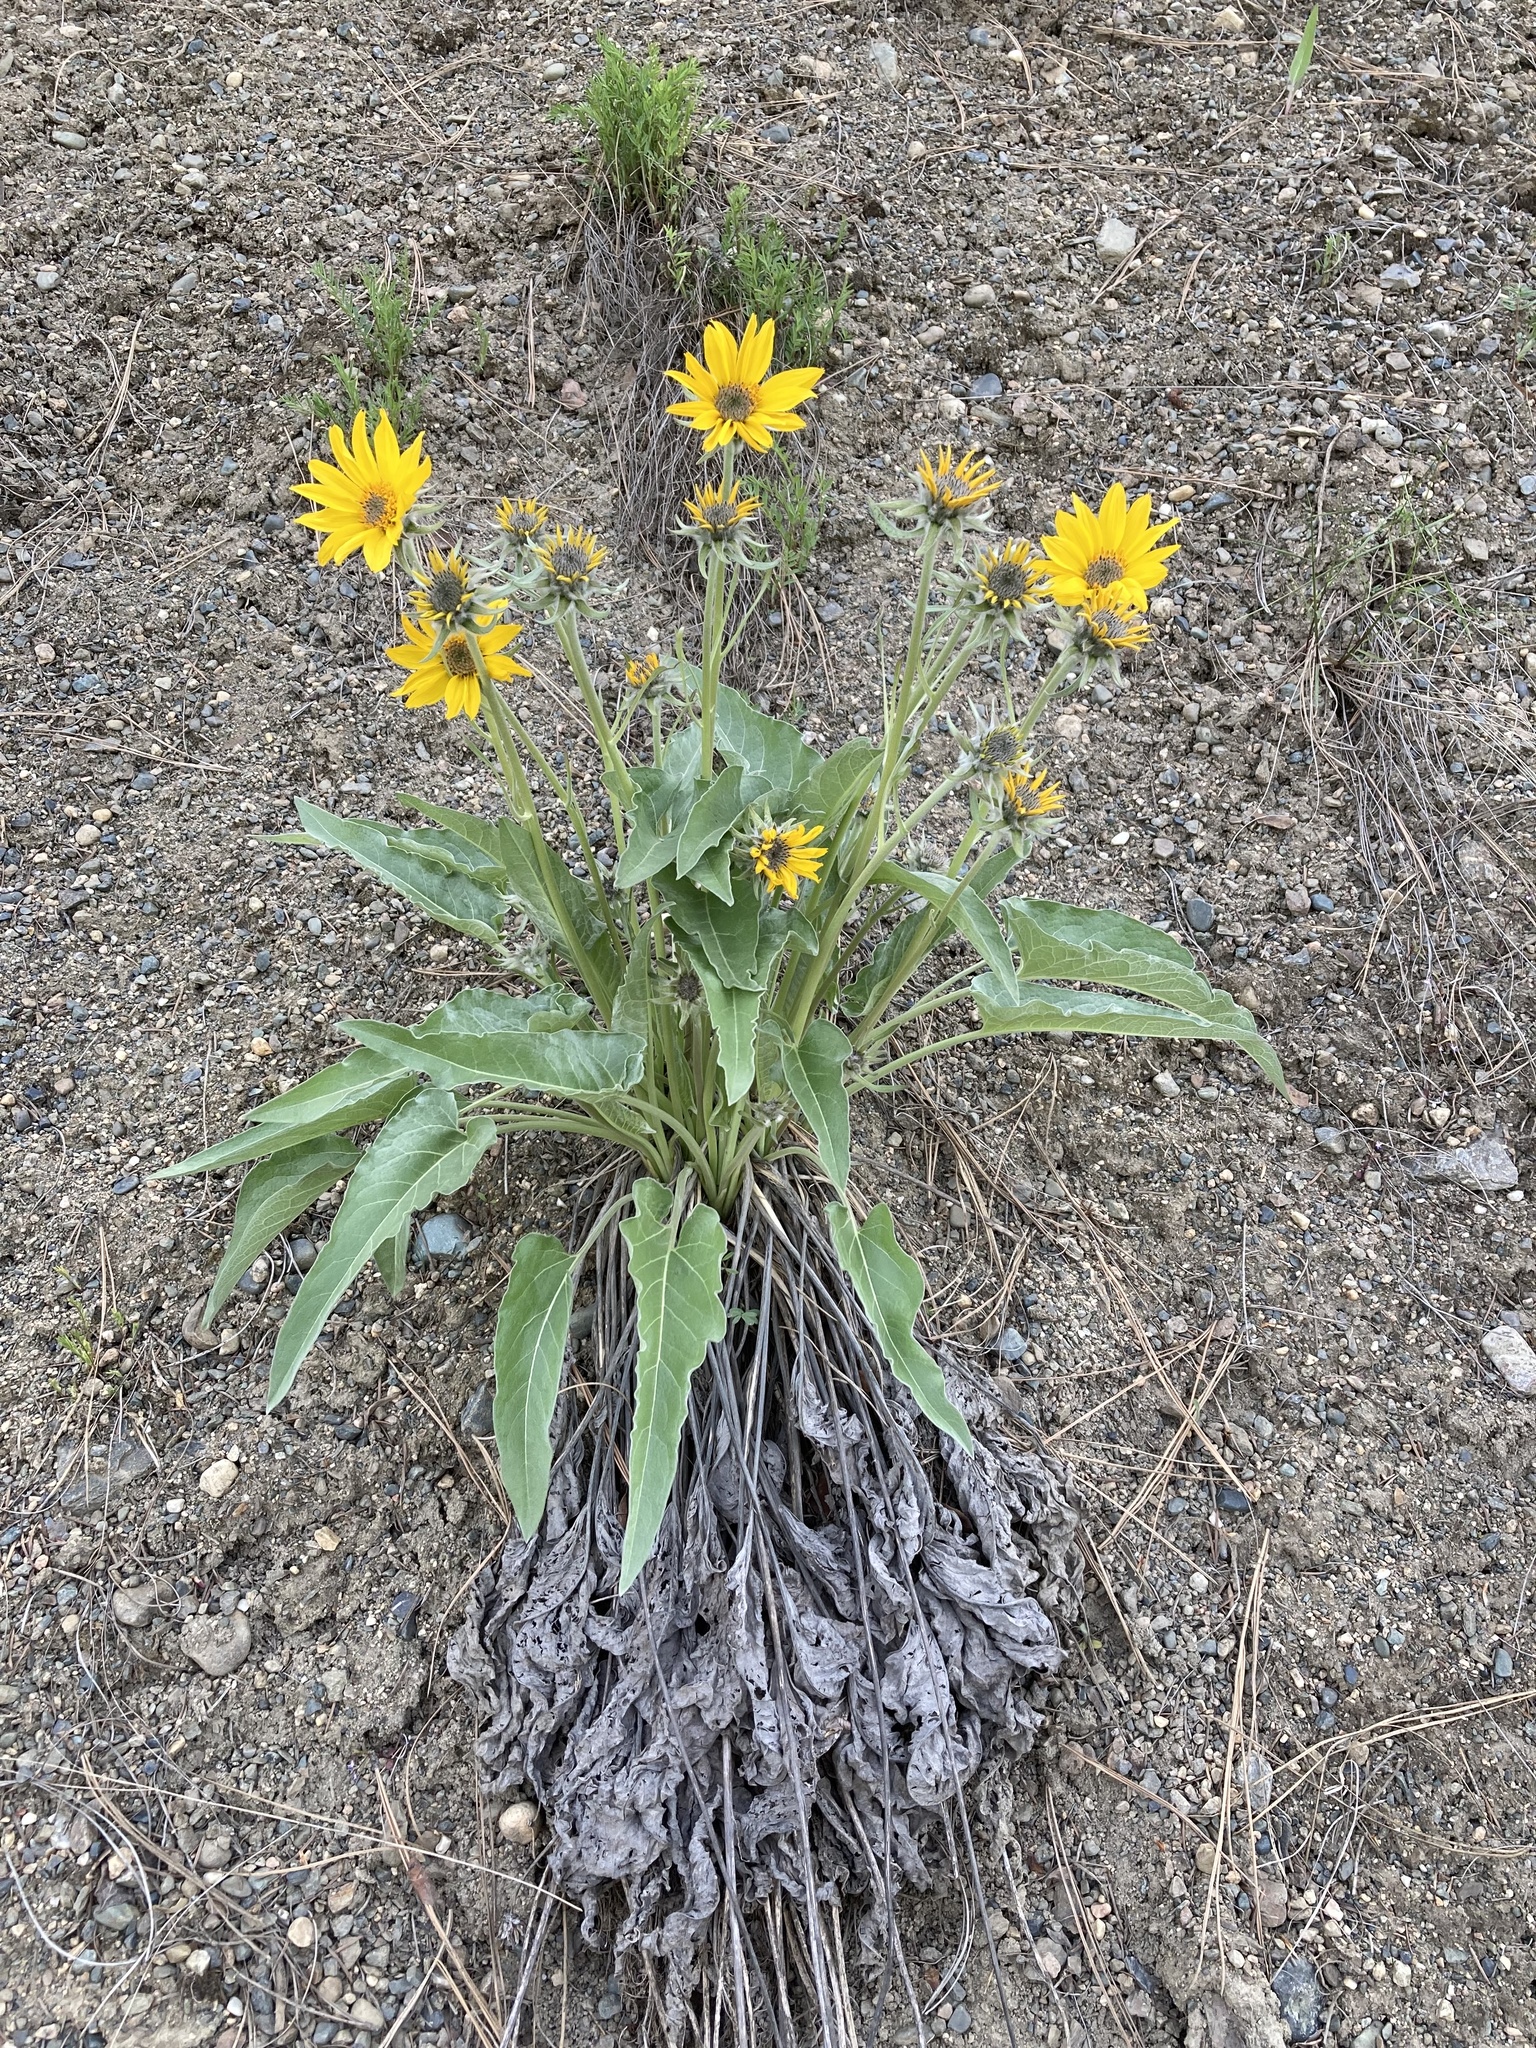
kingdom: Plantae
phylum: Tracheophyta
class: Magnoliopsida
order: Asterales
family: Asteraceae
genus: Wyethia
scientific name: Wyethia sagittata
